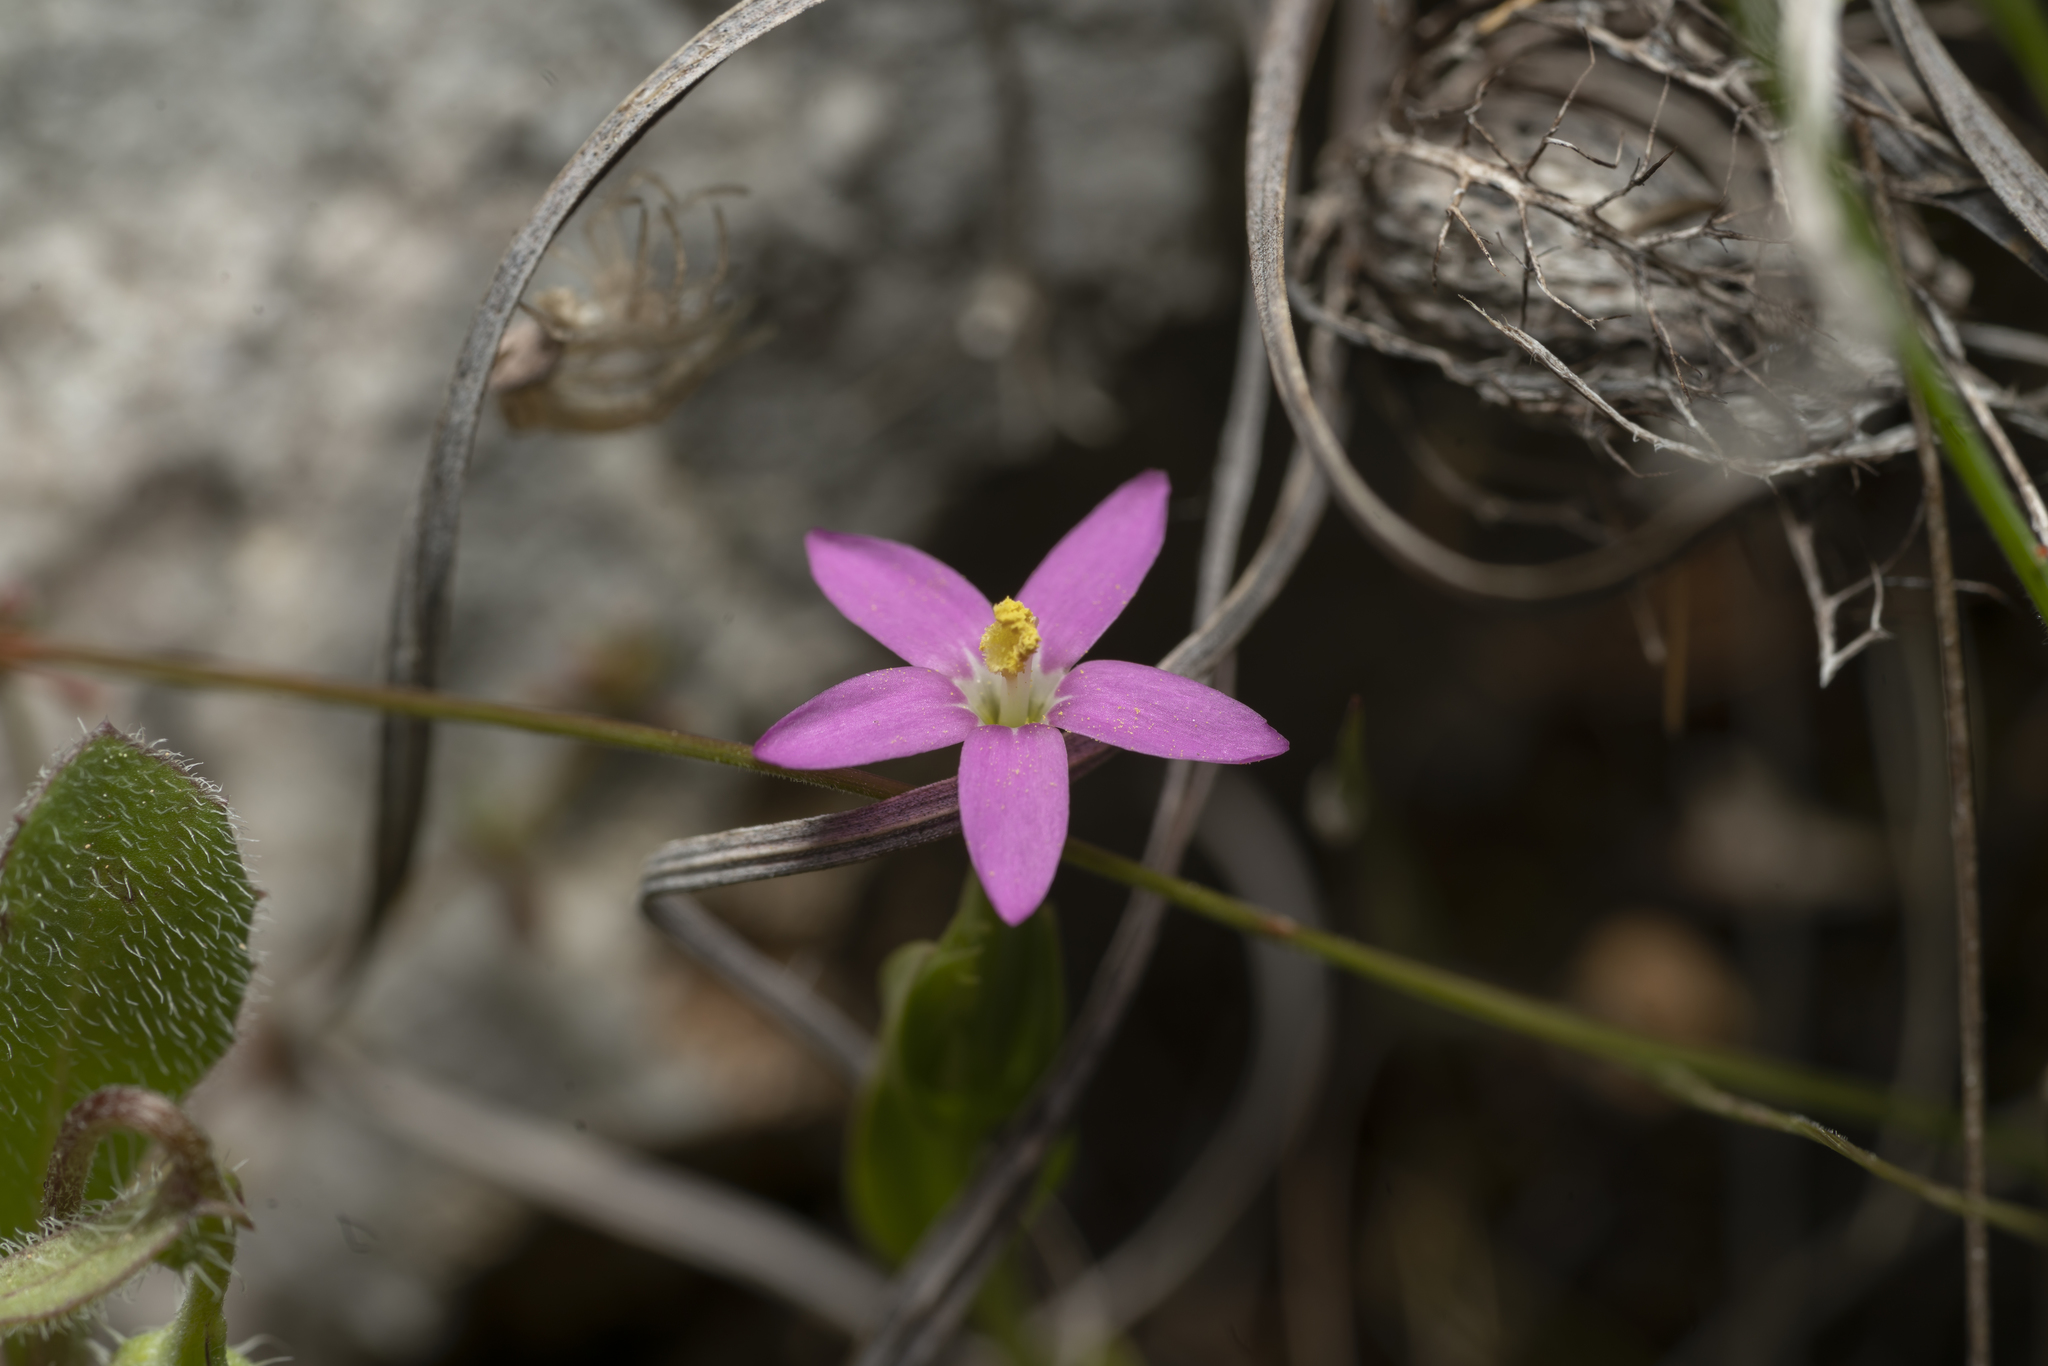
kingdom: Plantae
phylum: Tracheophyta
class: Magnoliopsida
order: Gentianales
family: Gentianaceae
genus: Centaurium
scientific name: Centaurium
